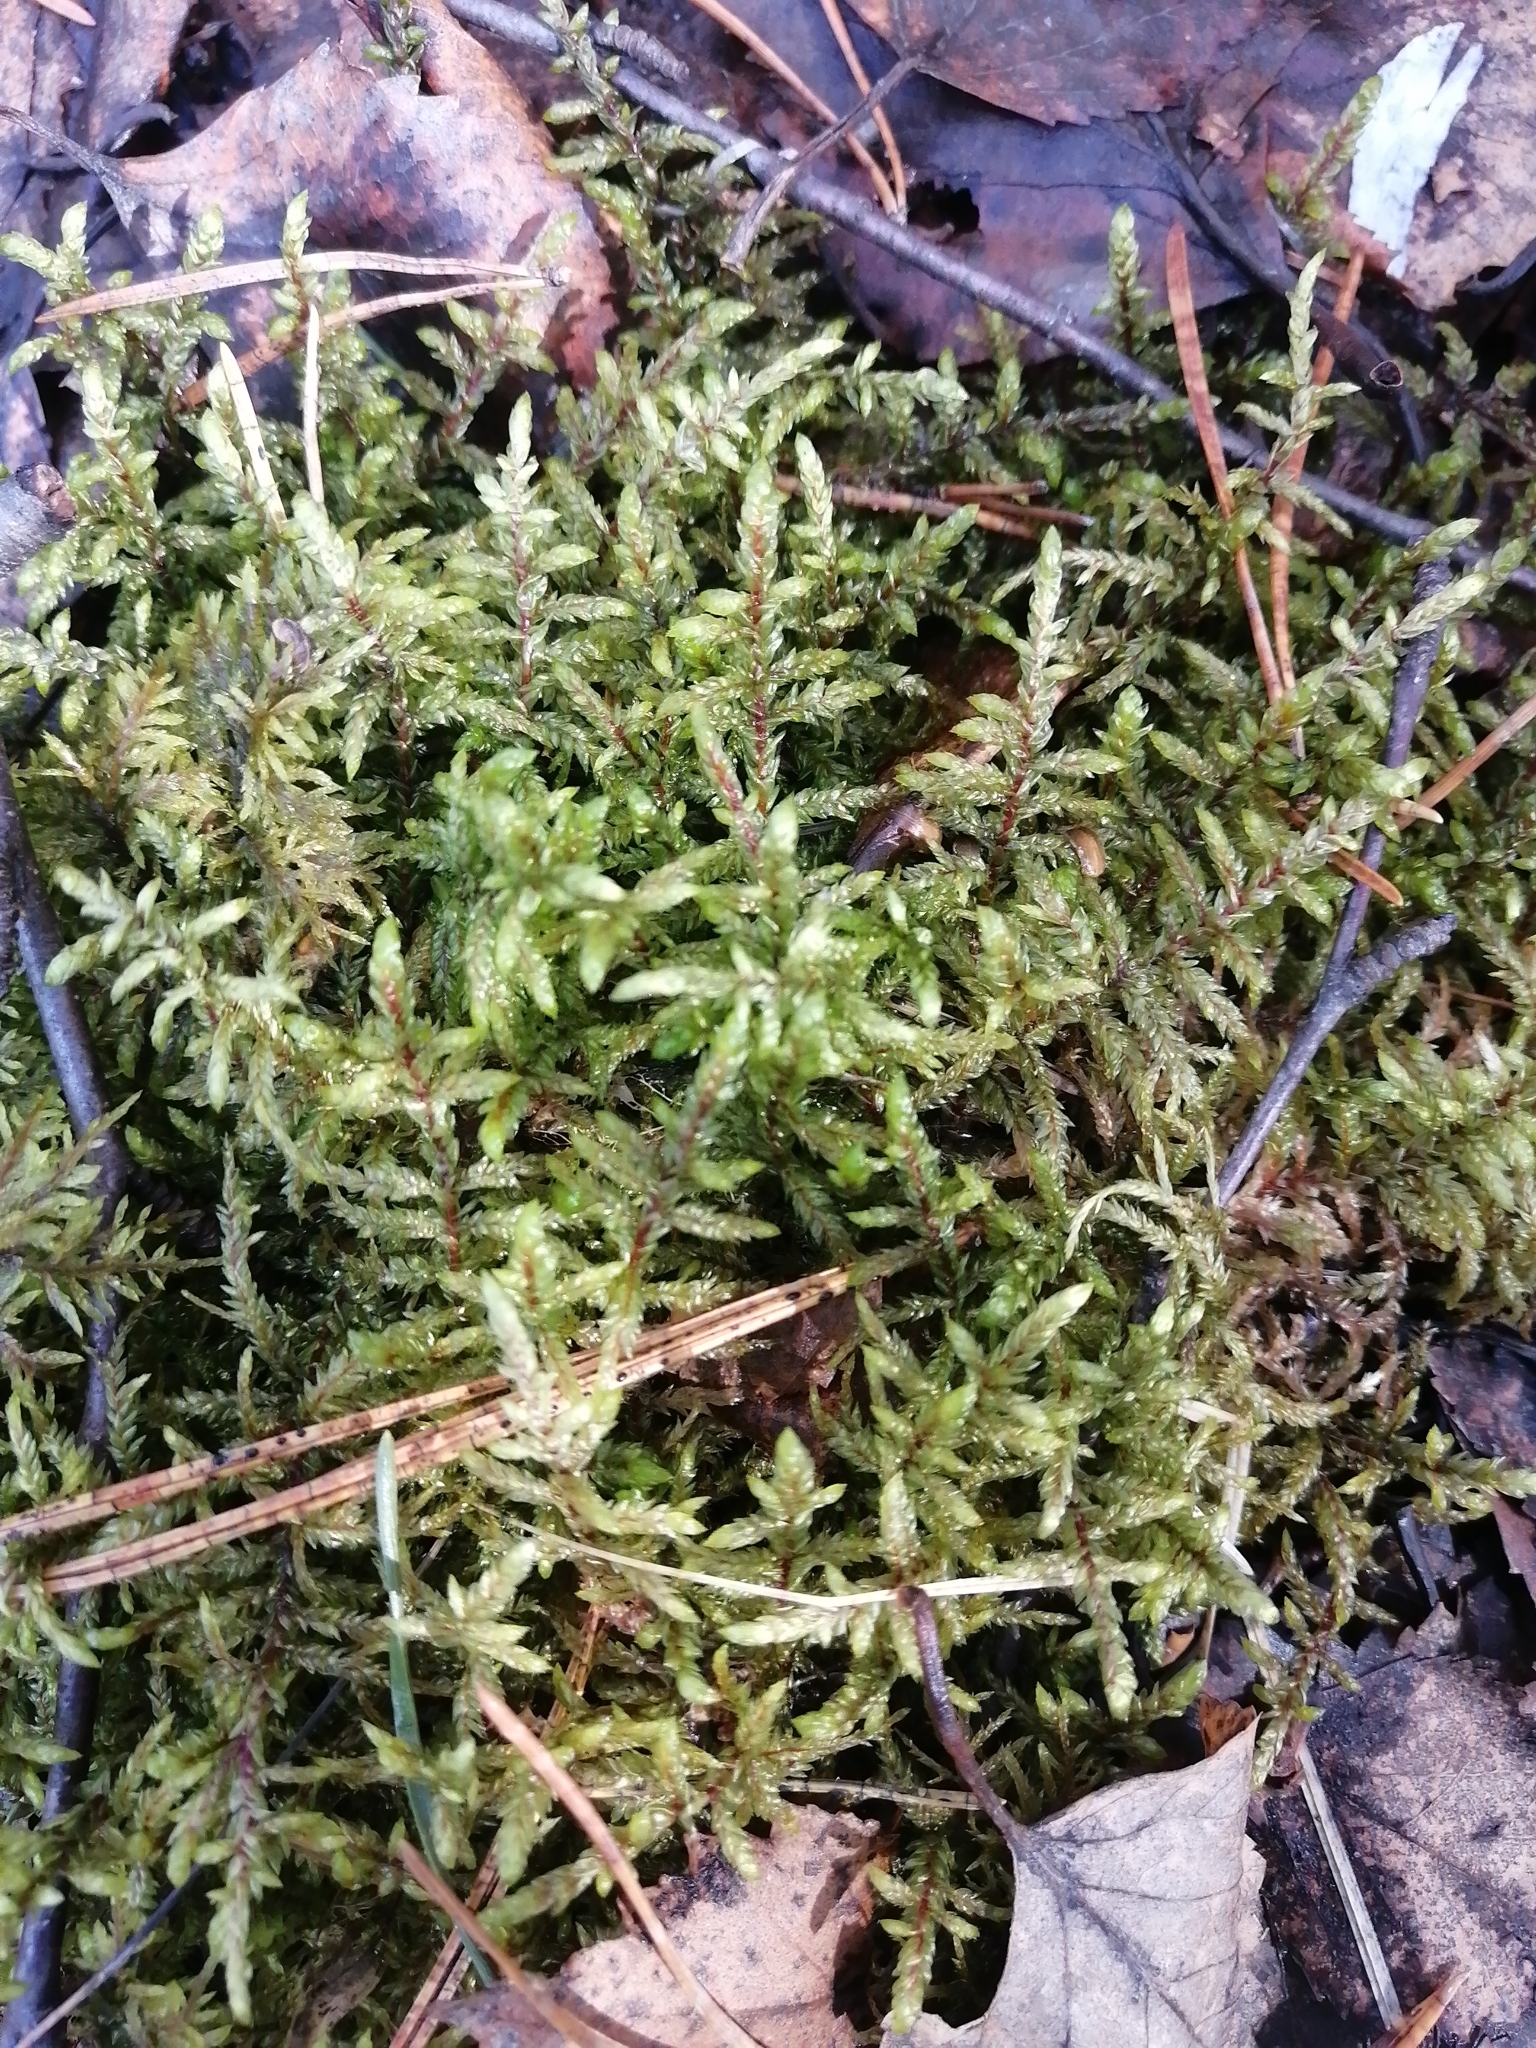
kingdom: Plantae
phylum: Bryophyta
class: Bryopsida
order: Hypnales
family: Hylocomiaceae
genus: Pleurozium
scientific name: Pleurozium schreberi
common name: Red-stemmed feather moss
